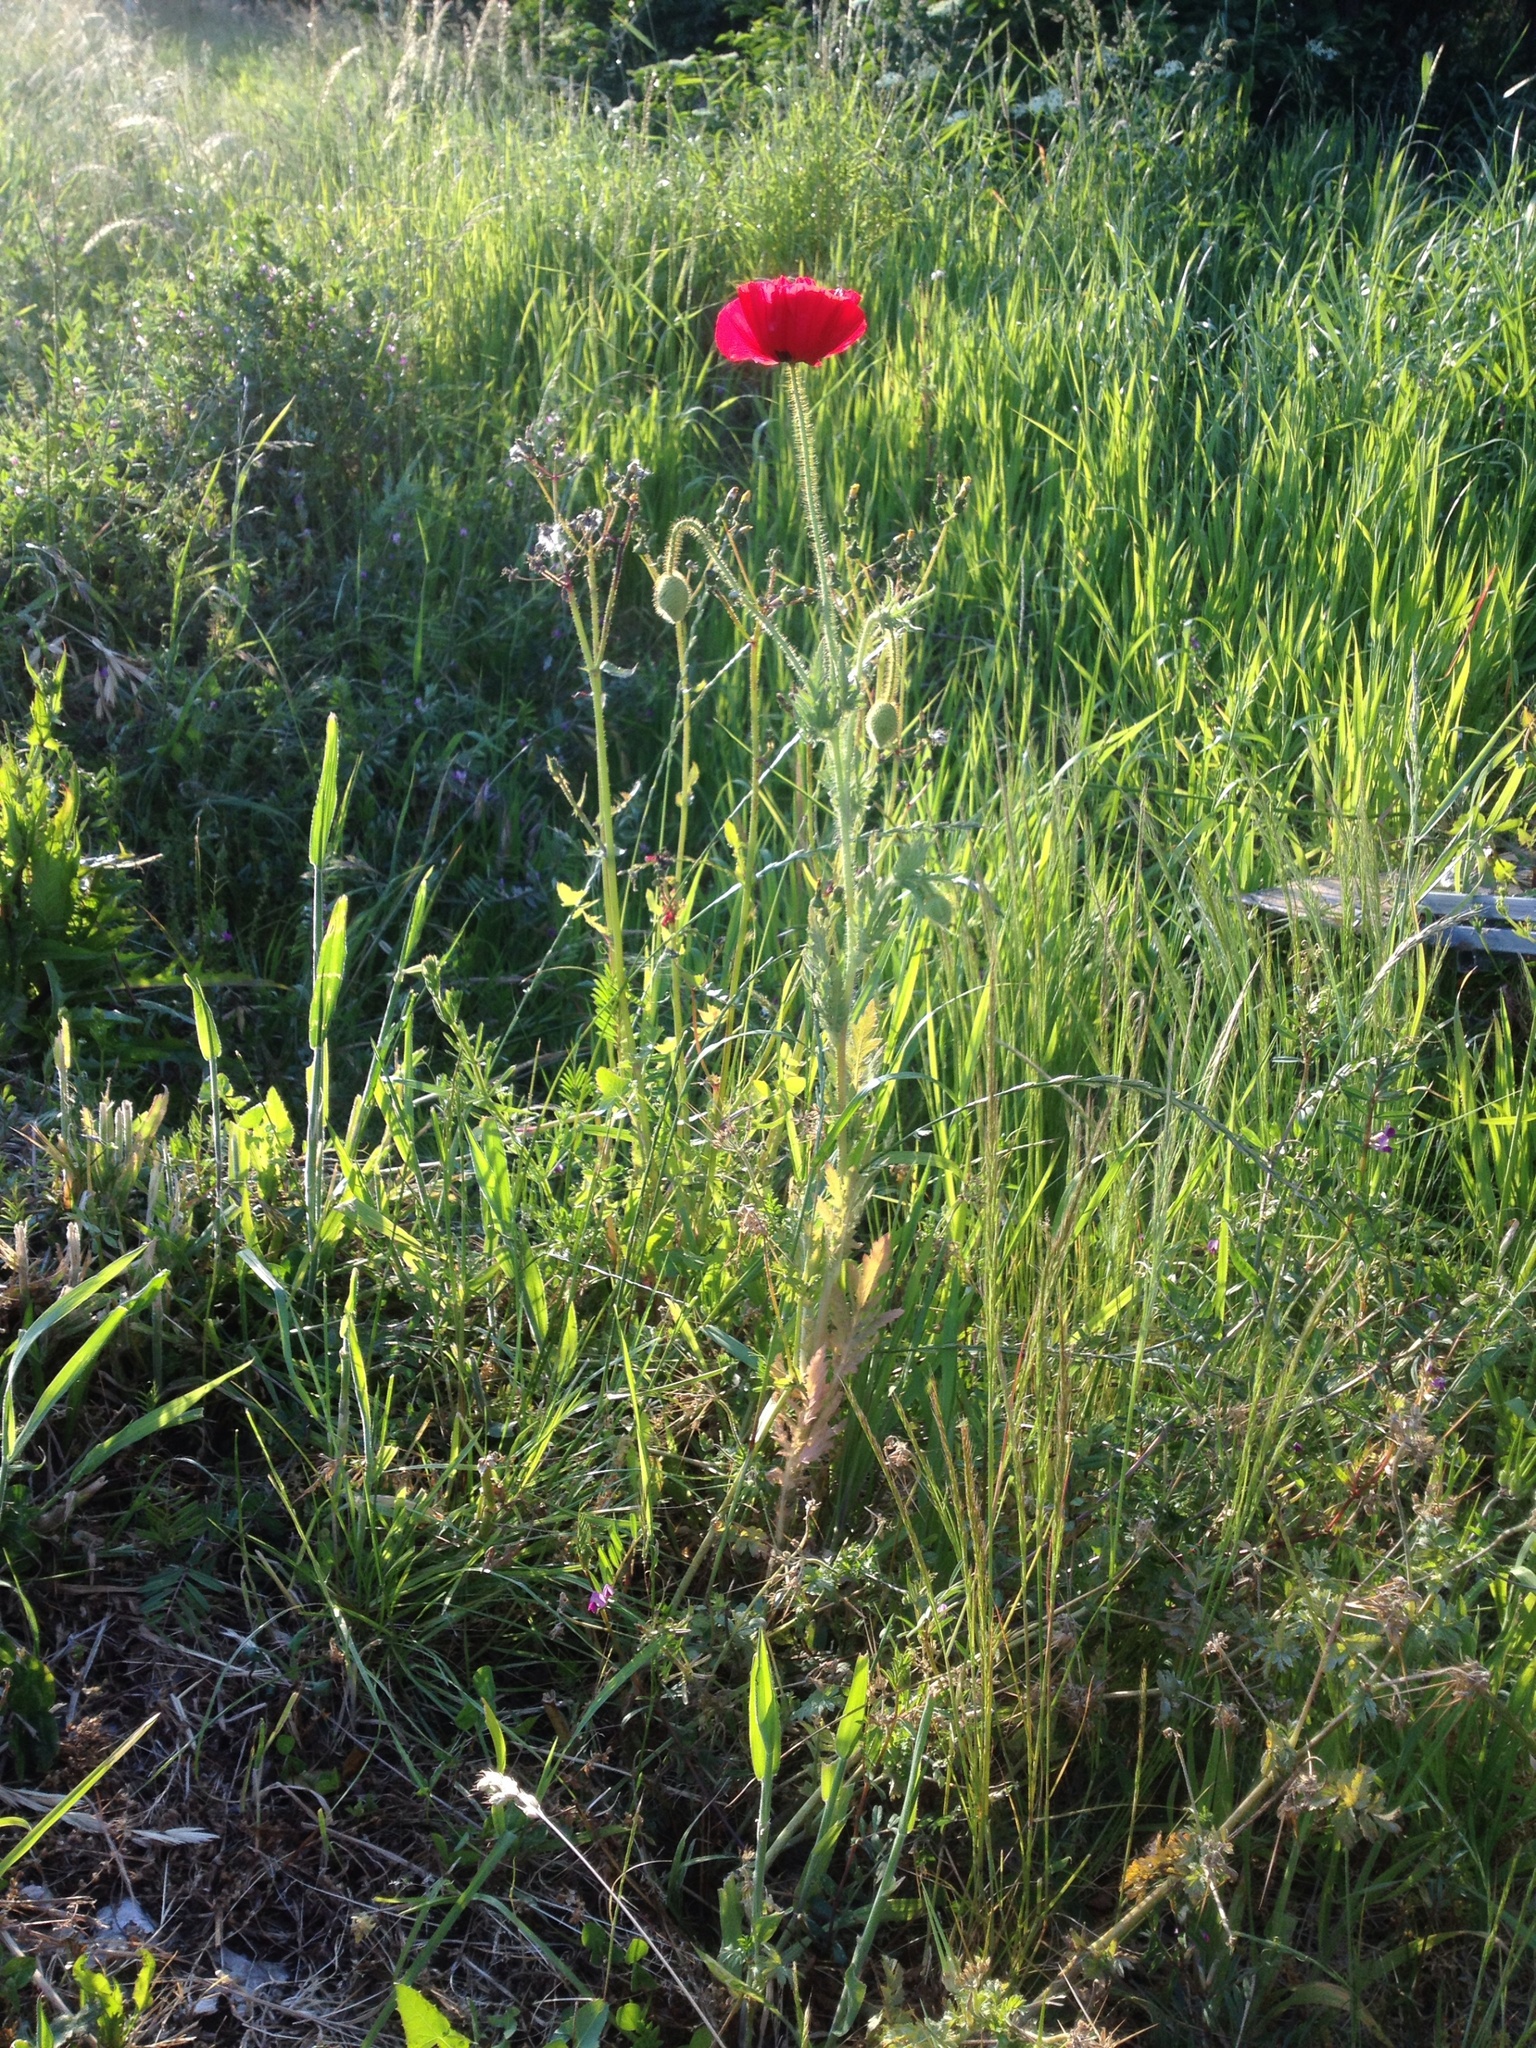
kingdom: Plantae
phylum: Tracheophyta
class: Magnoliopsida
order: Ranunculales
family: Papaveraceae
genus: Papaver
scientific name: Papaver rhoeas
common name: Corn poppy
